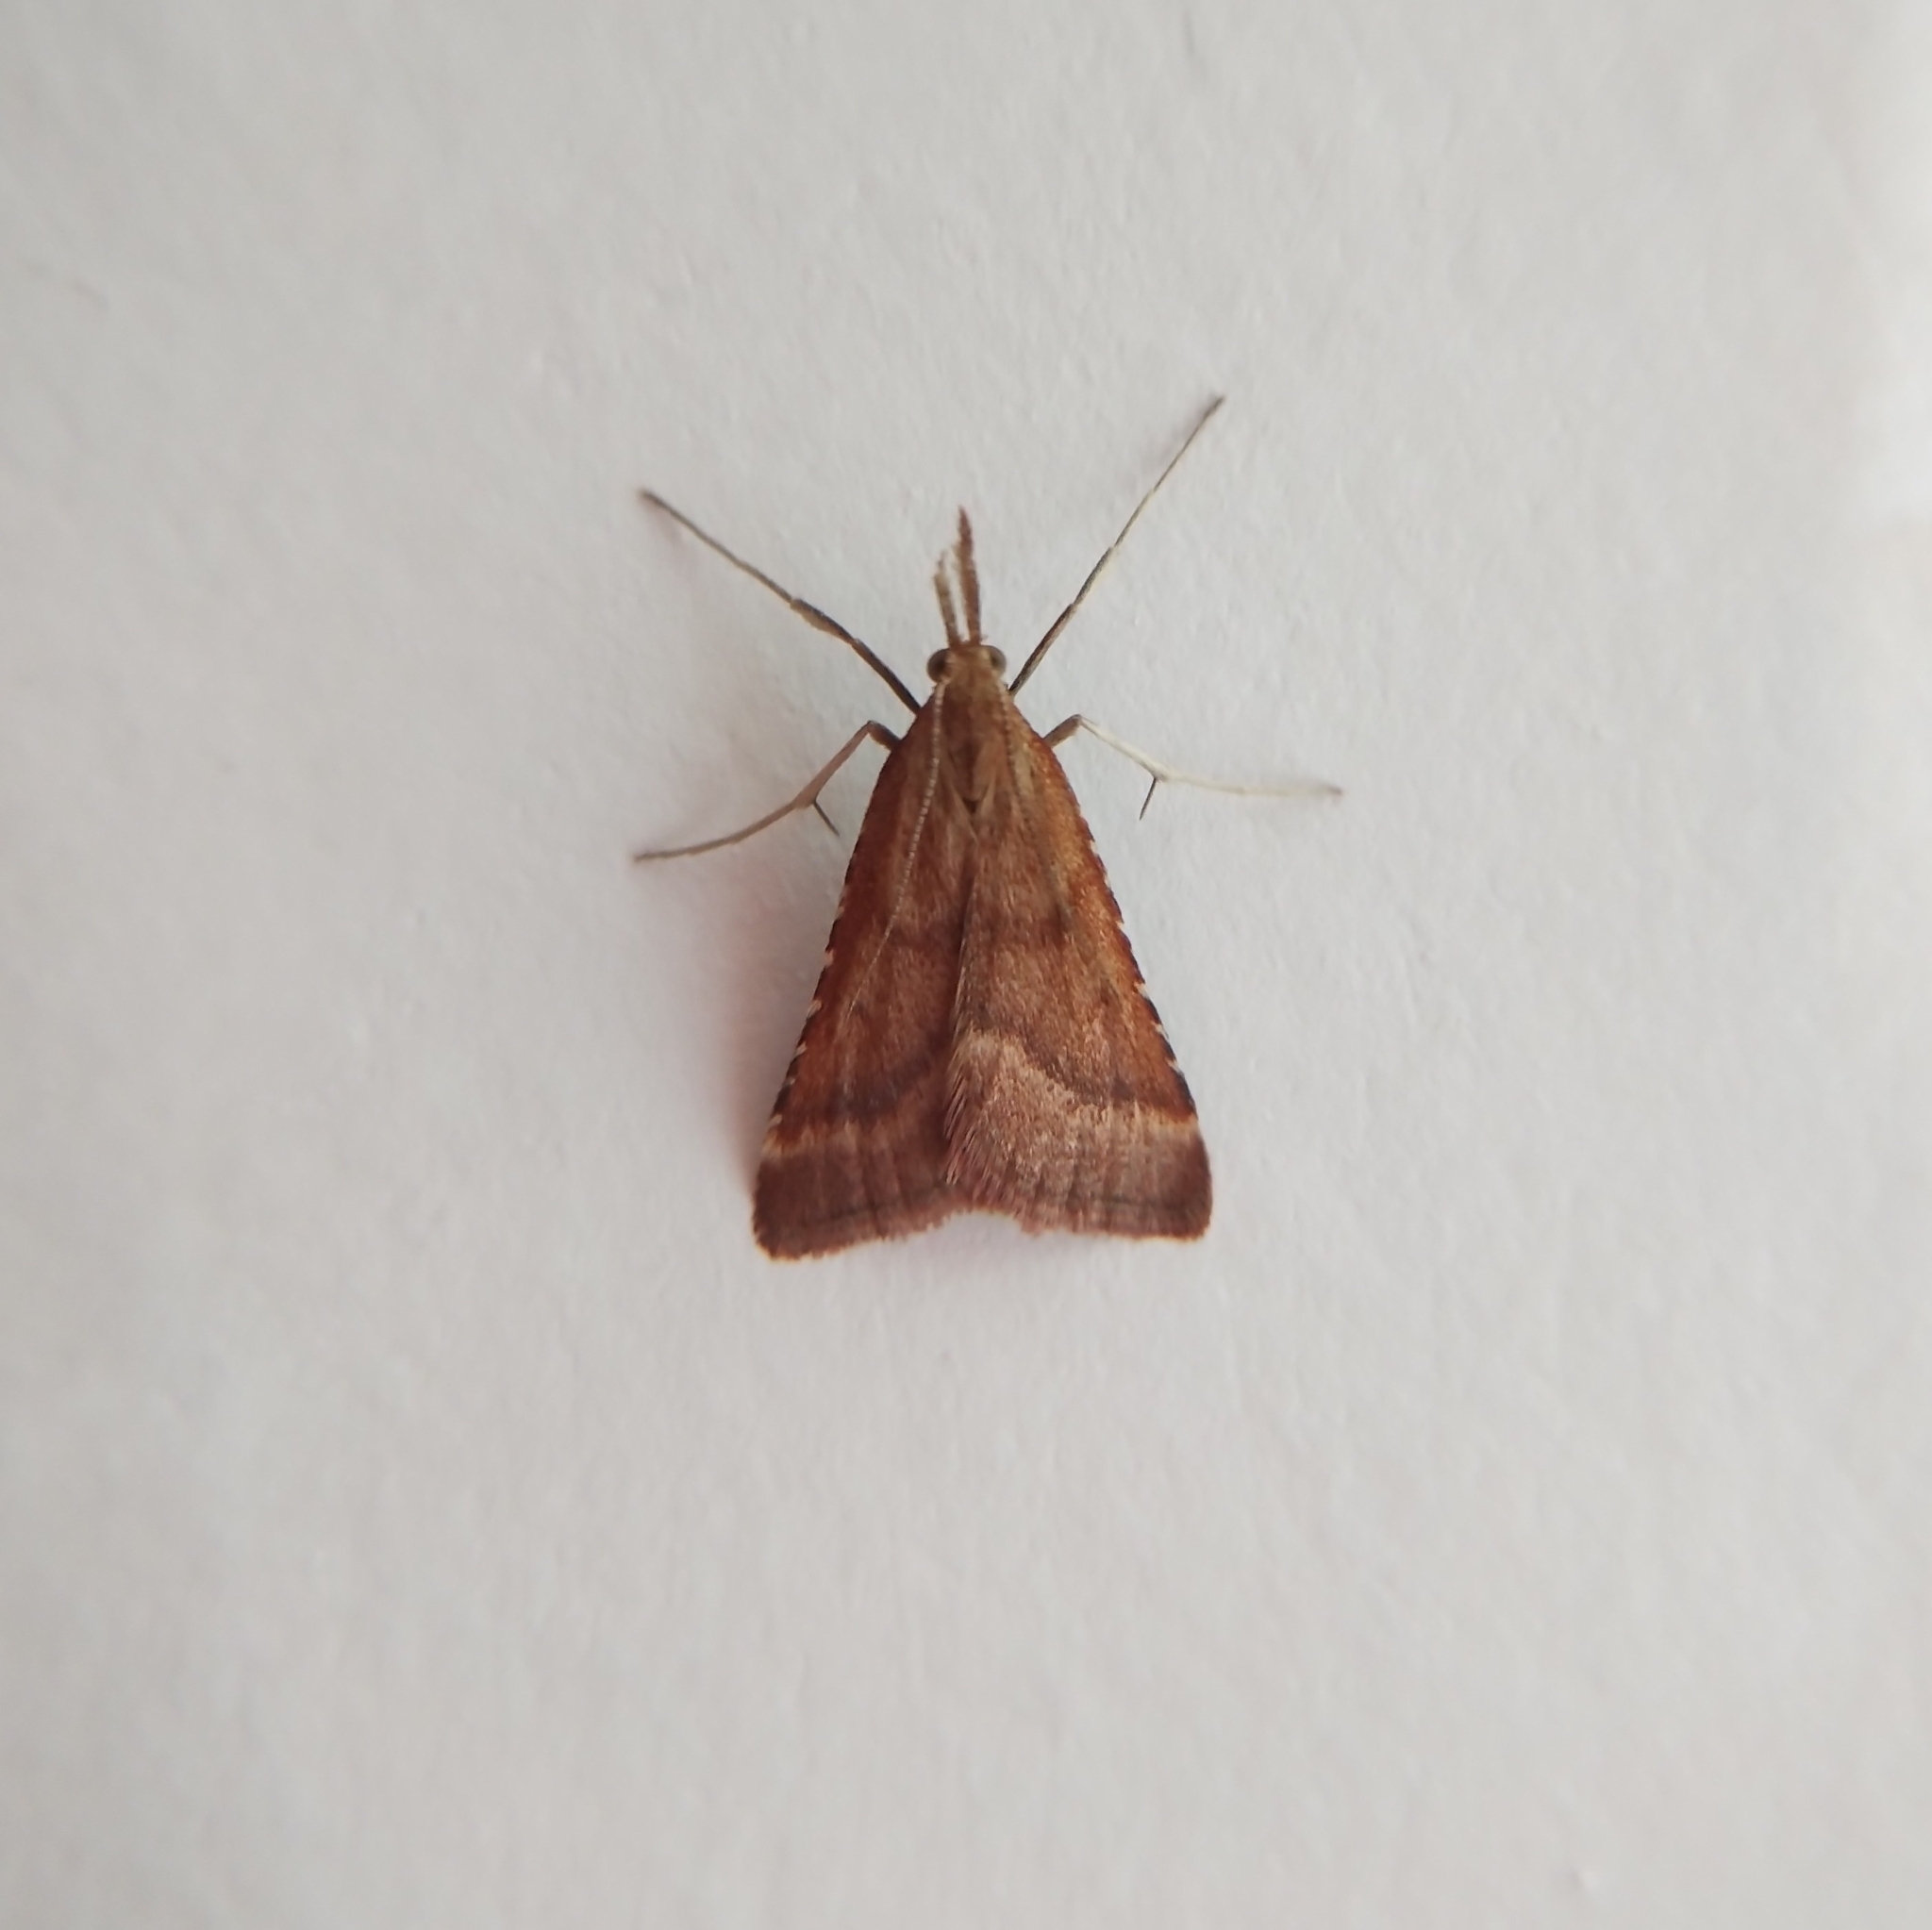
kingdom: Animalia
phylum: Arthropoda
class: Insecta
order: Lepidoptera
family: Pyralidae
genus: Synaphe
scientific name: Synaphe punctalis
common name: Long-legged tabby
